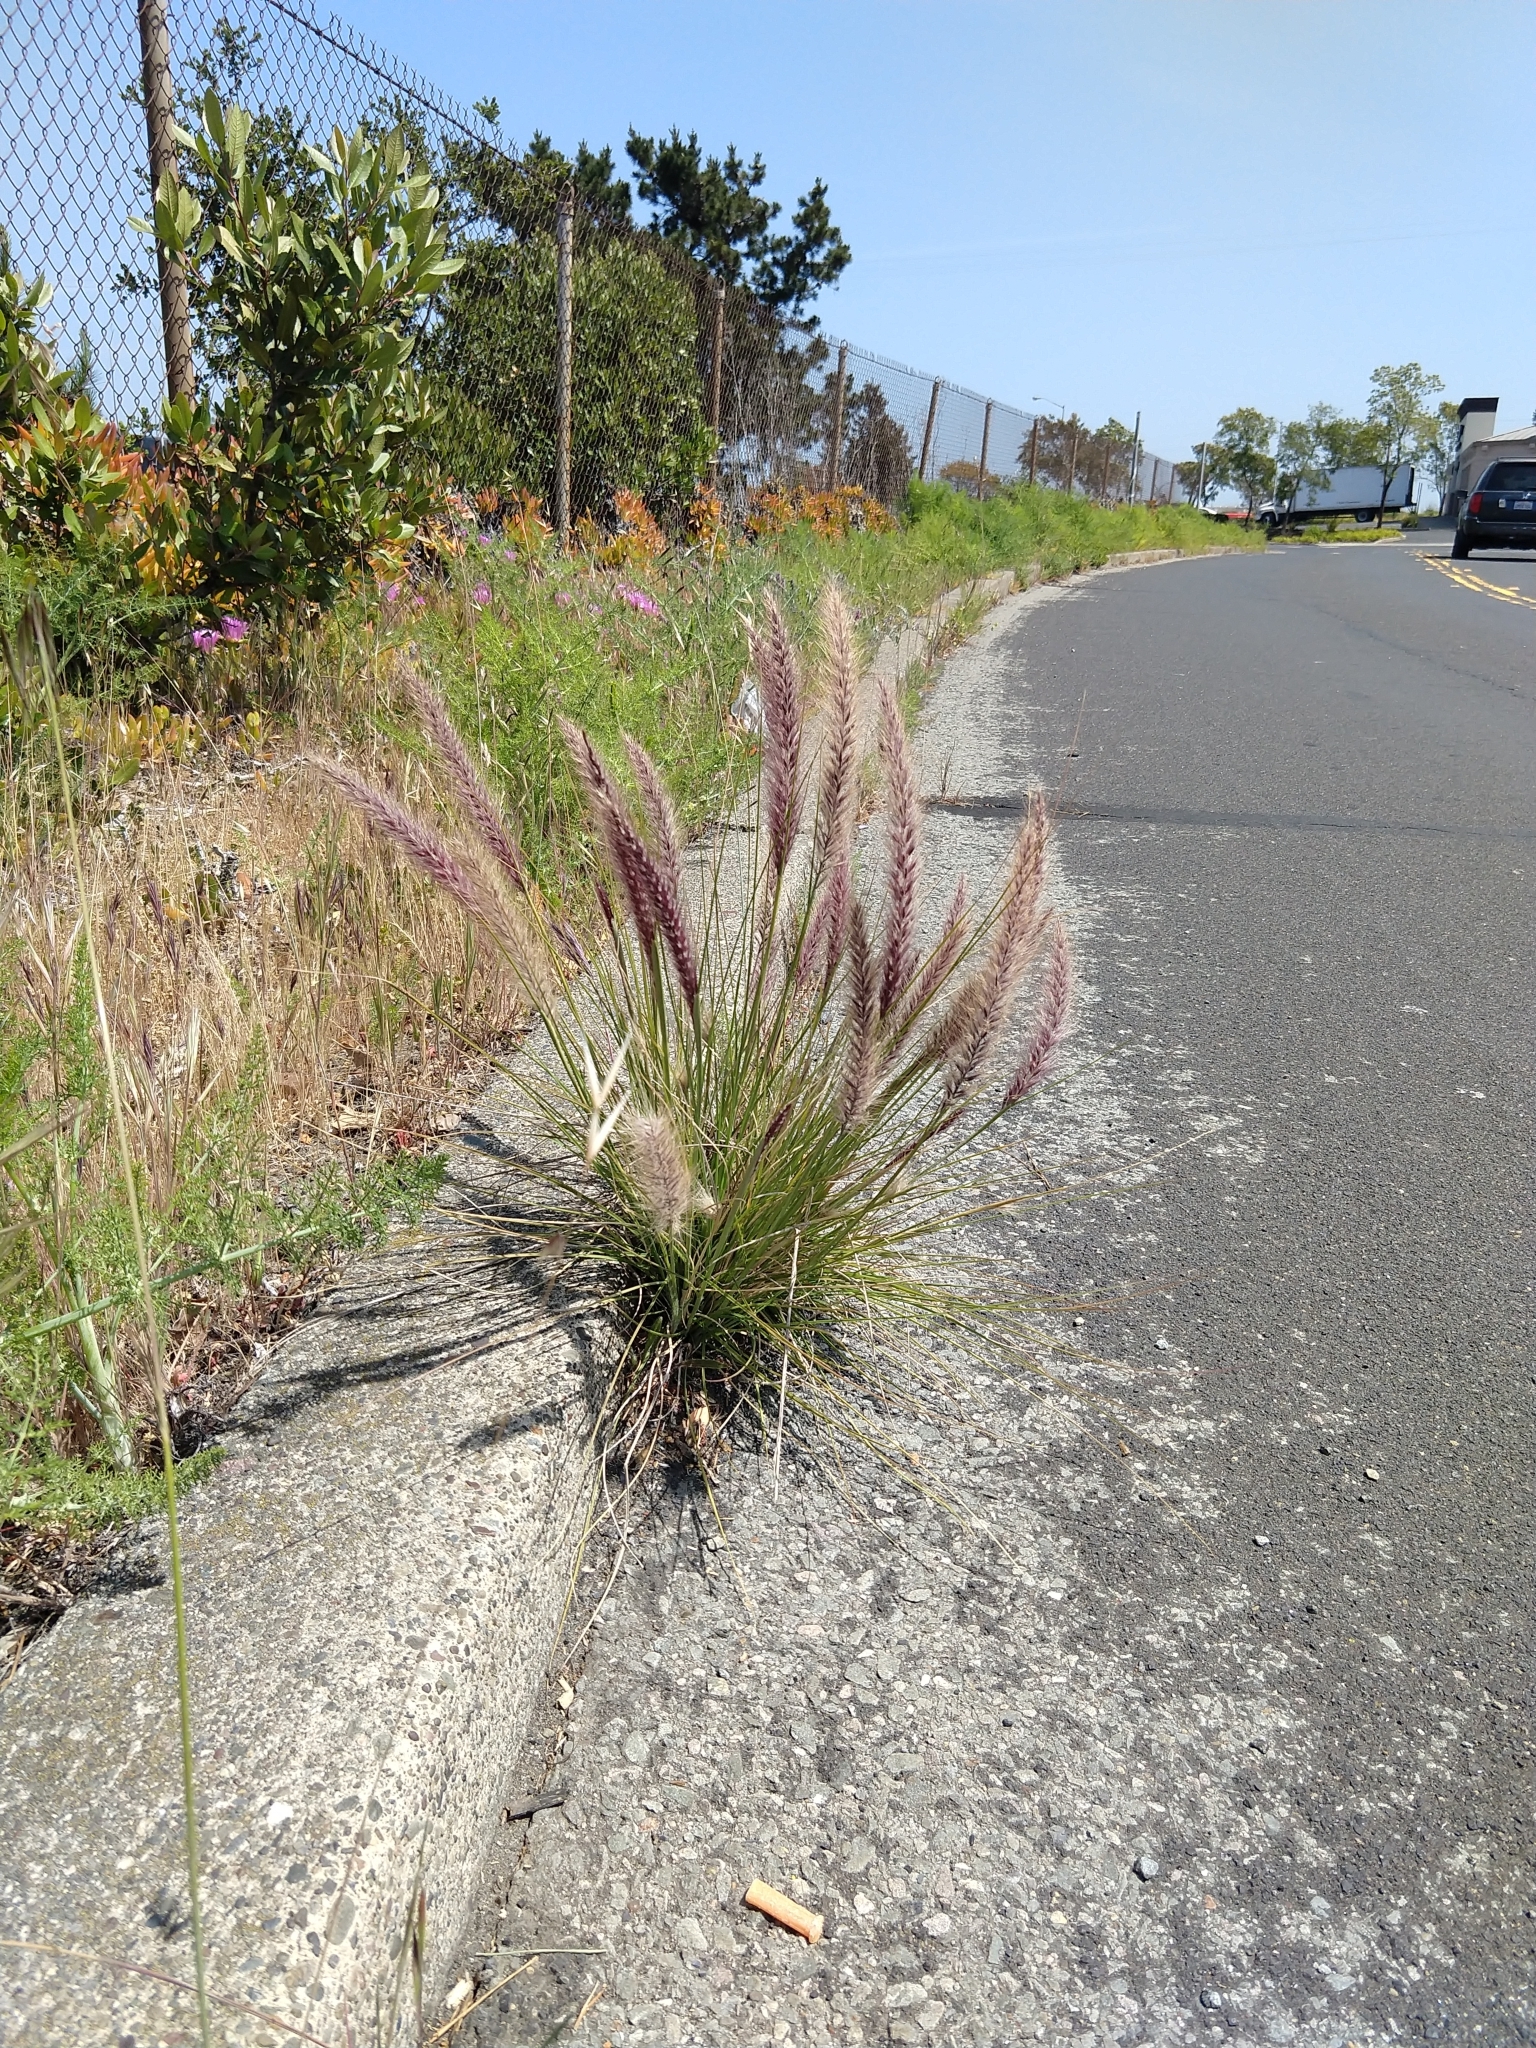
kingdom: Plantae
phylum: Tracheophyta
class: Liliopsida
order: Poales
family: Poaceae
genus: Cenchrus
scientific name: Cenchrus setaceus
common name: Crimson fountaingrass
